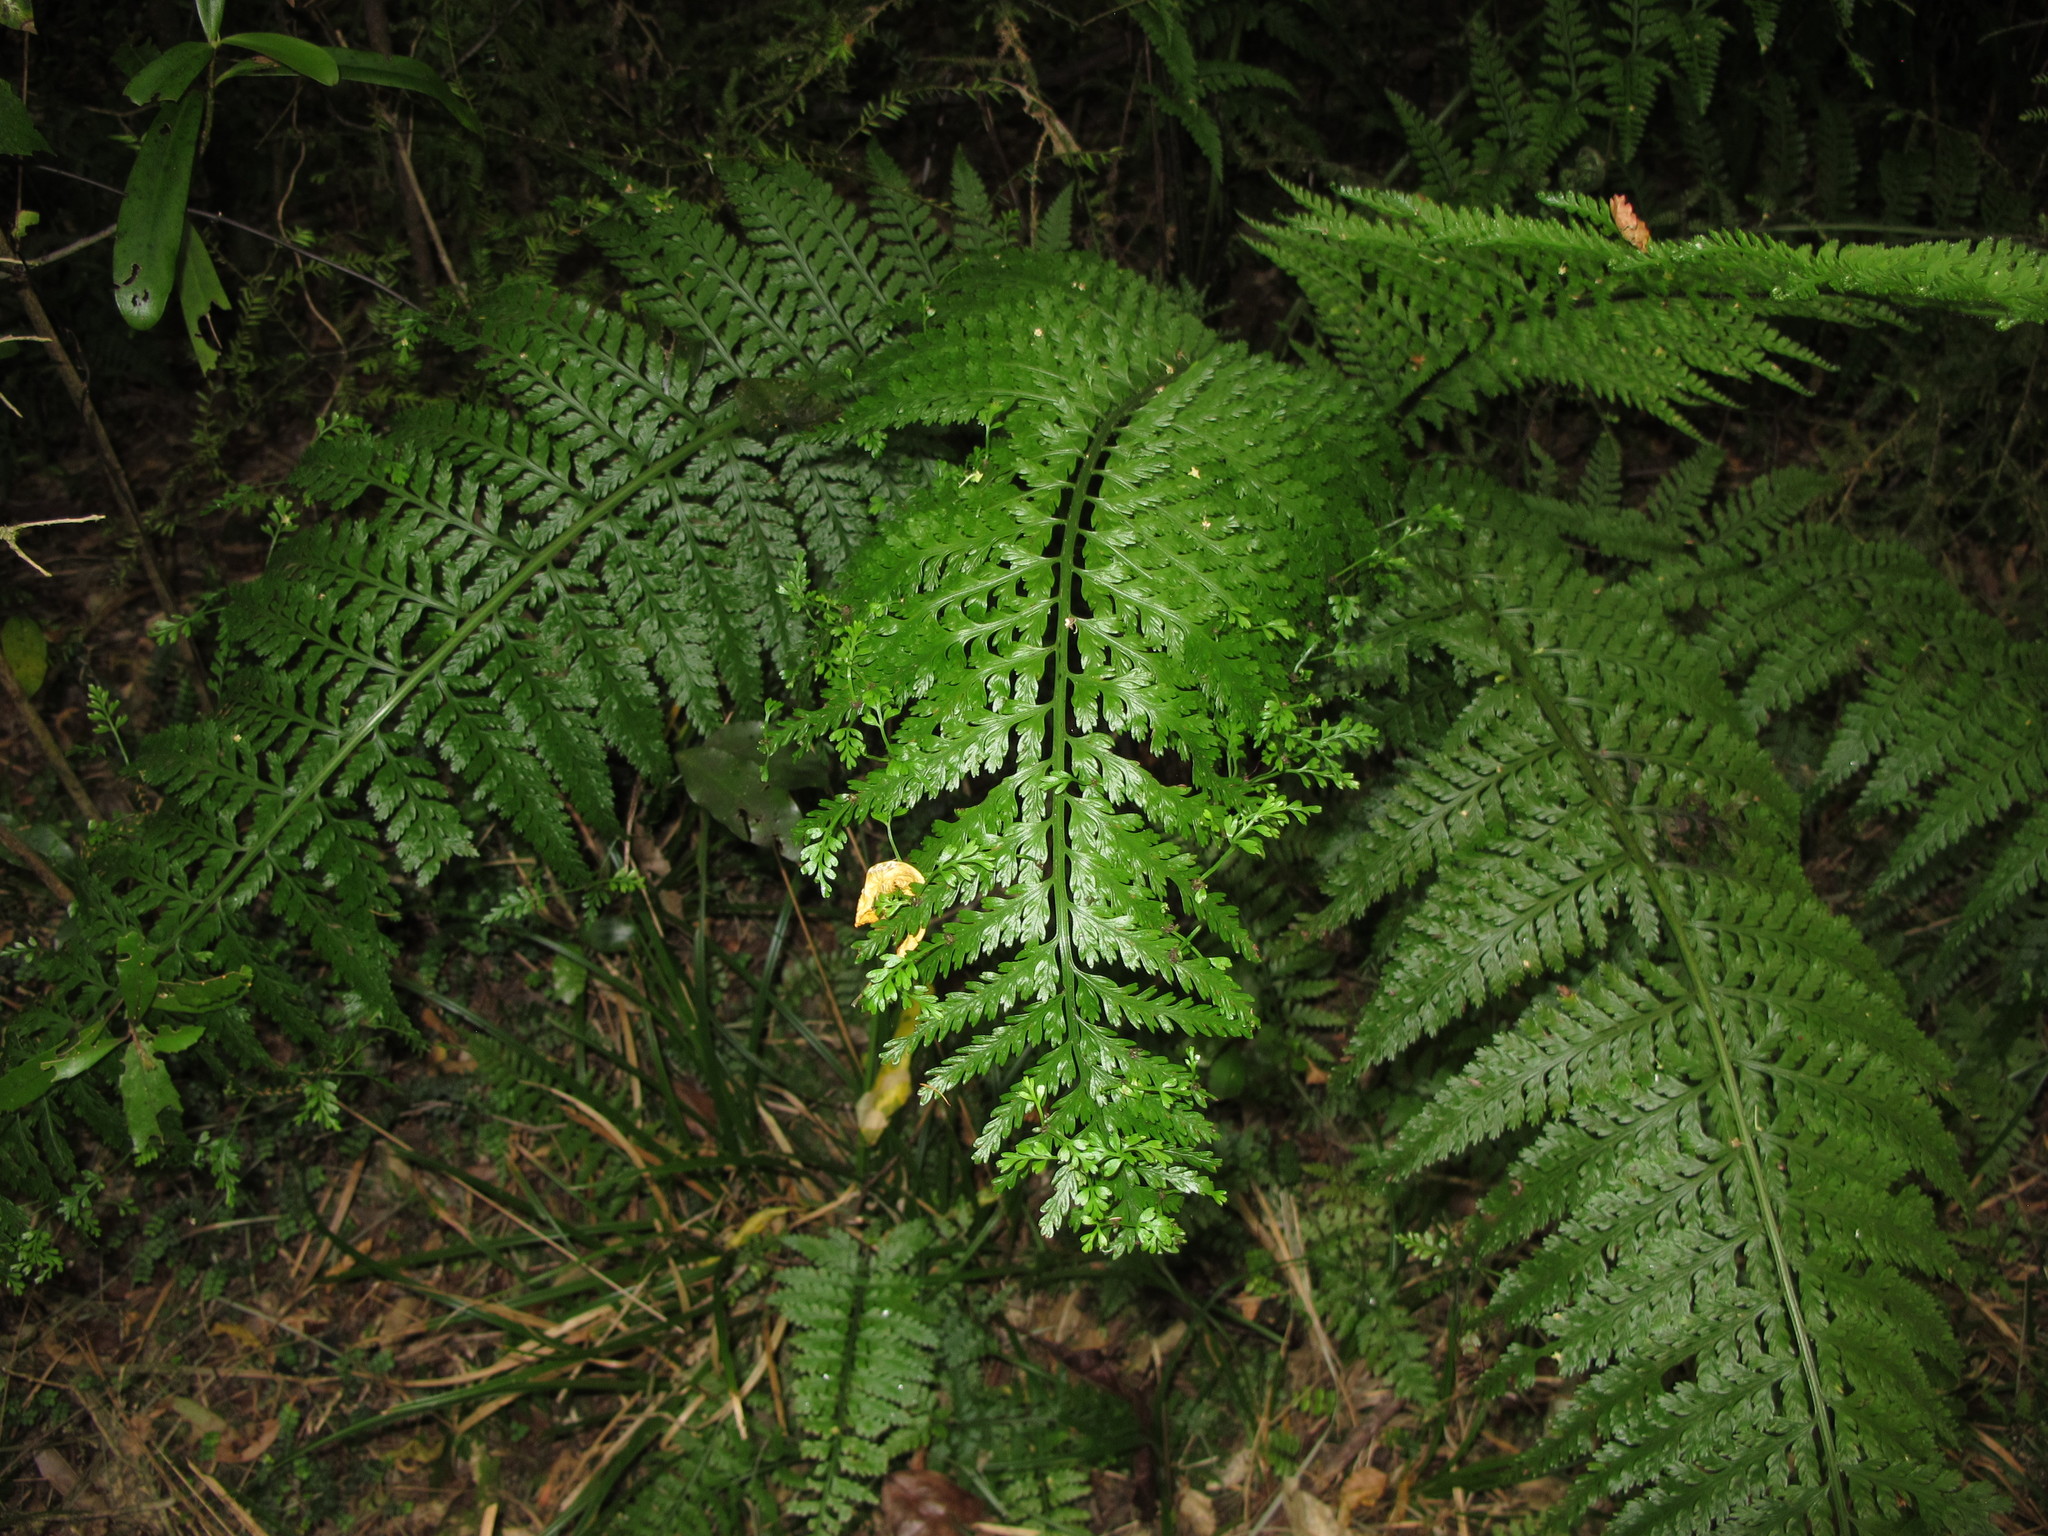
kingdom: Plantae
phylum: Tracheophyta
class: Polypodiopsida
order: Polypodiales
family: Aspleniaceae
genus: Asplenium
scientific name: Asplenium bulbiferum
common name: Mother fern
